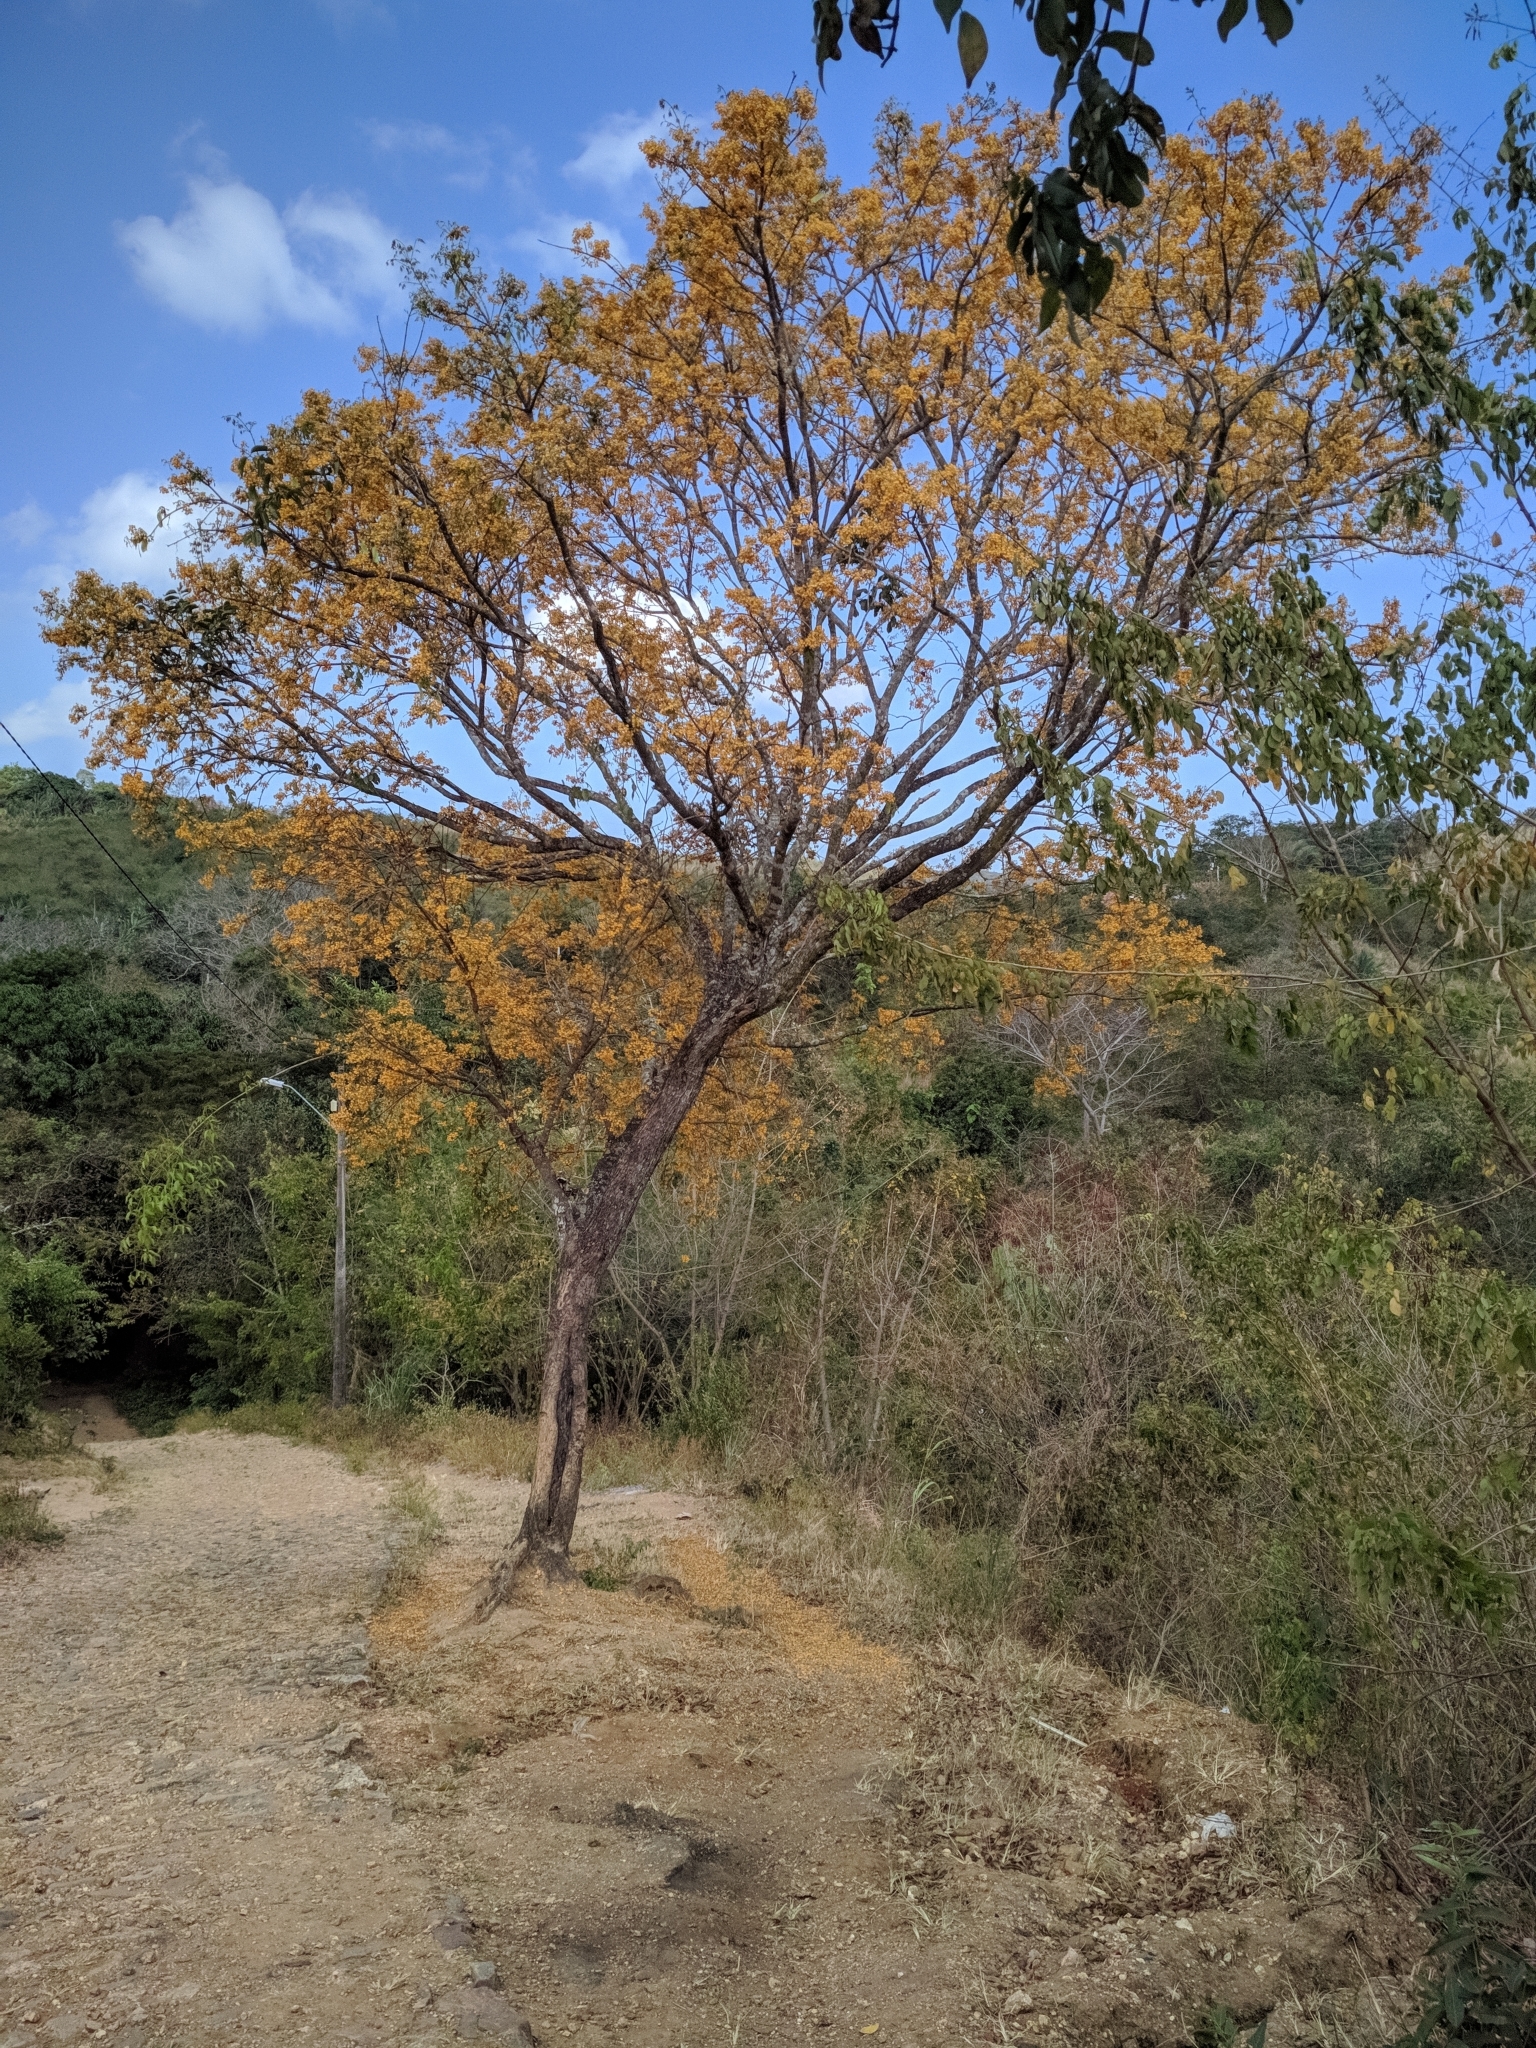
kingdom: Plantae
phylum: Tracheophyta
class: Magnoliopsida
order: Fabales
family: Fabaceae
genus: Platymiscium
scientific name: Platymiscium floribundum
